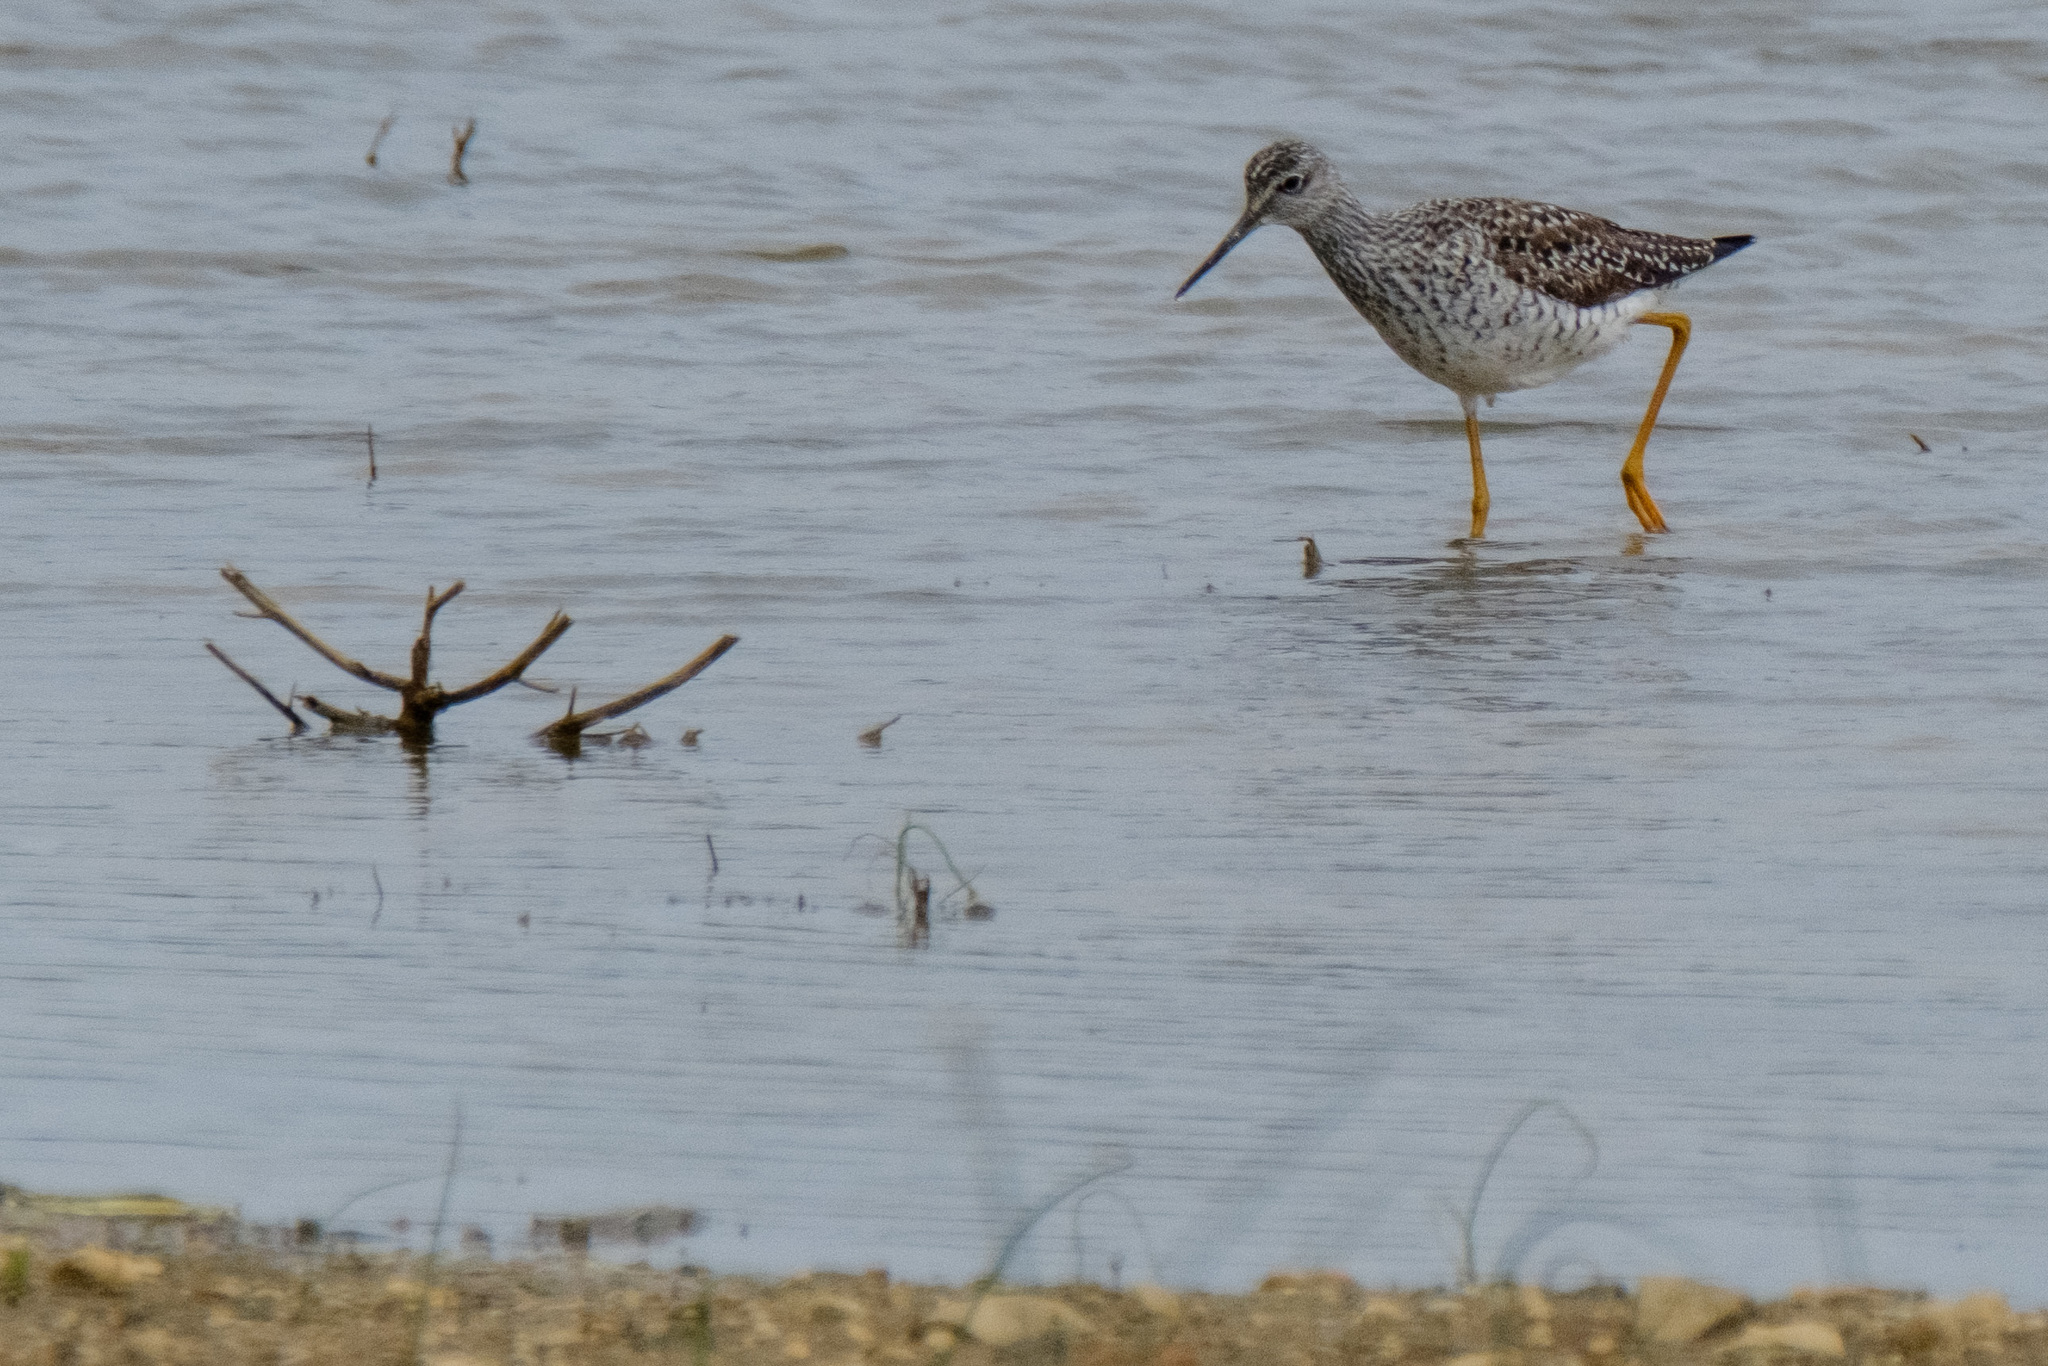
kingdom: Animalia
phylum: Chordata
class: Aves
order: Charadriiformes
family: Scolopacidae
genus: Tringa
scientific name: Tringa melanoleuca
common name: Greater yellowlegs
